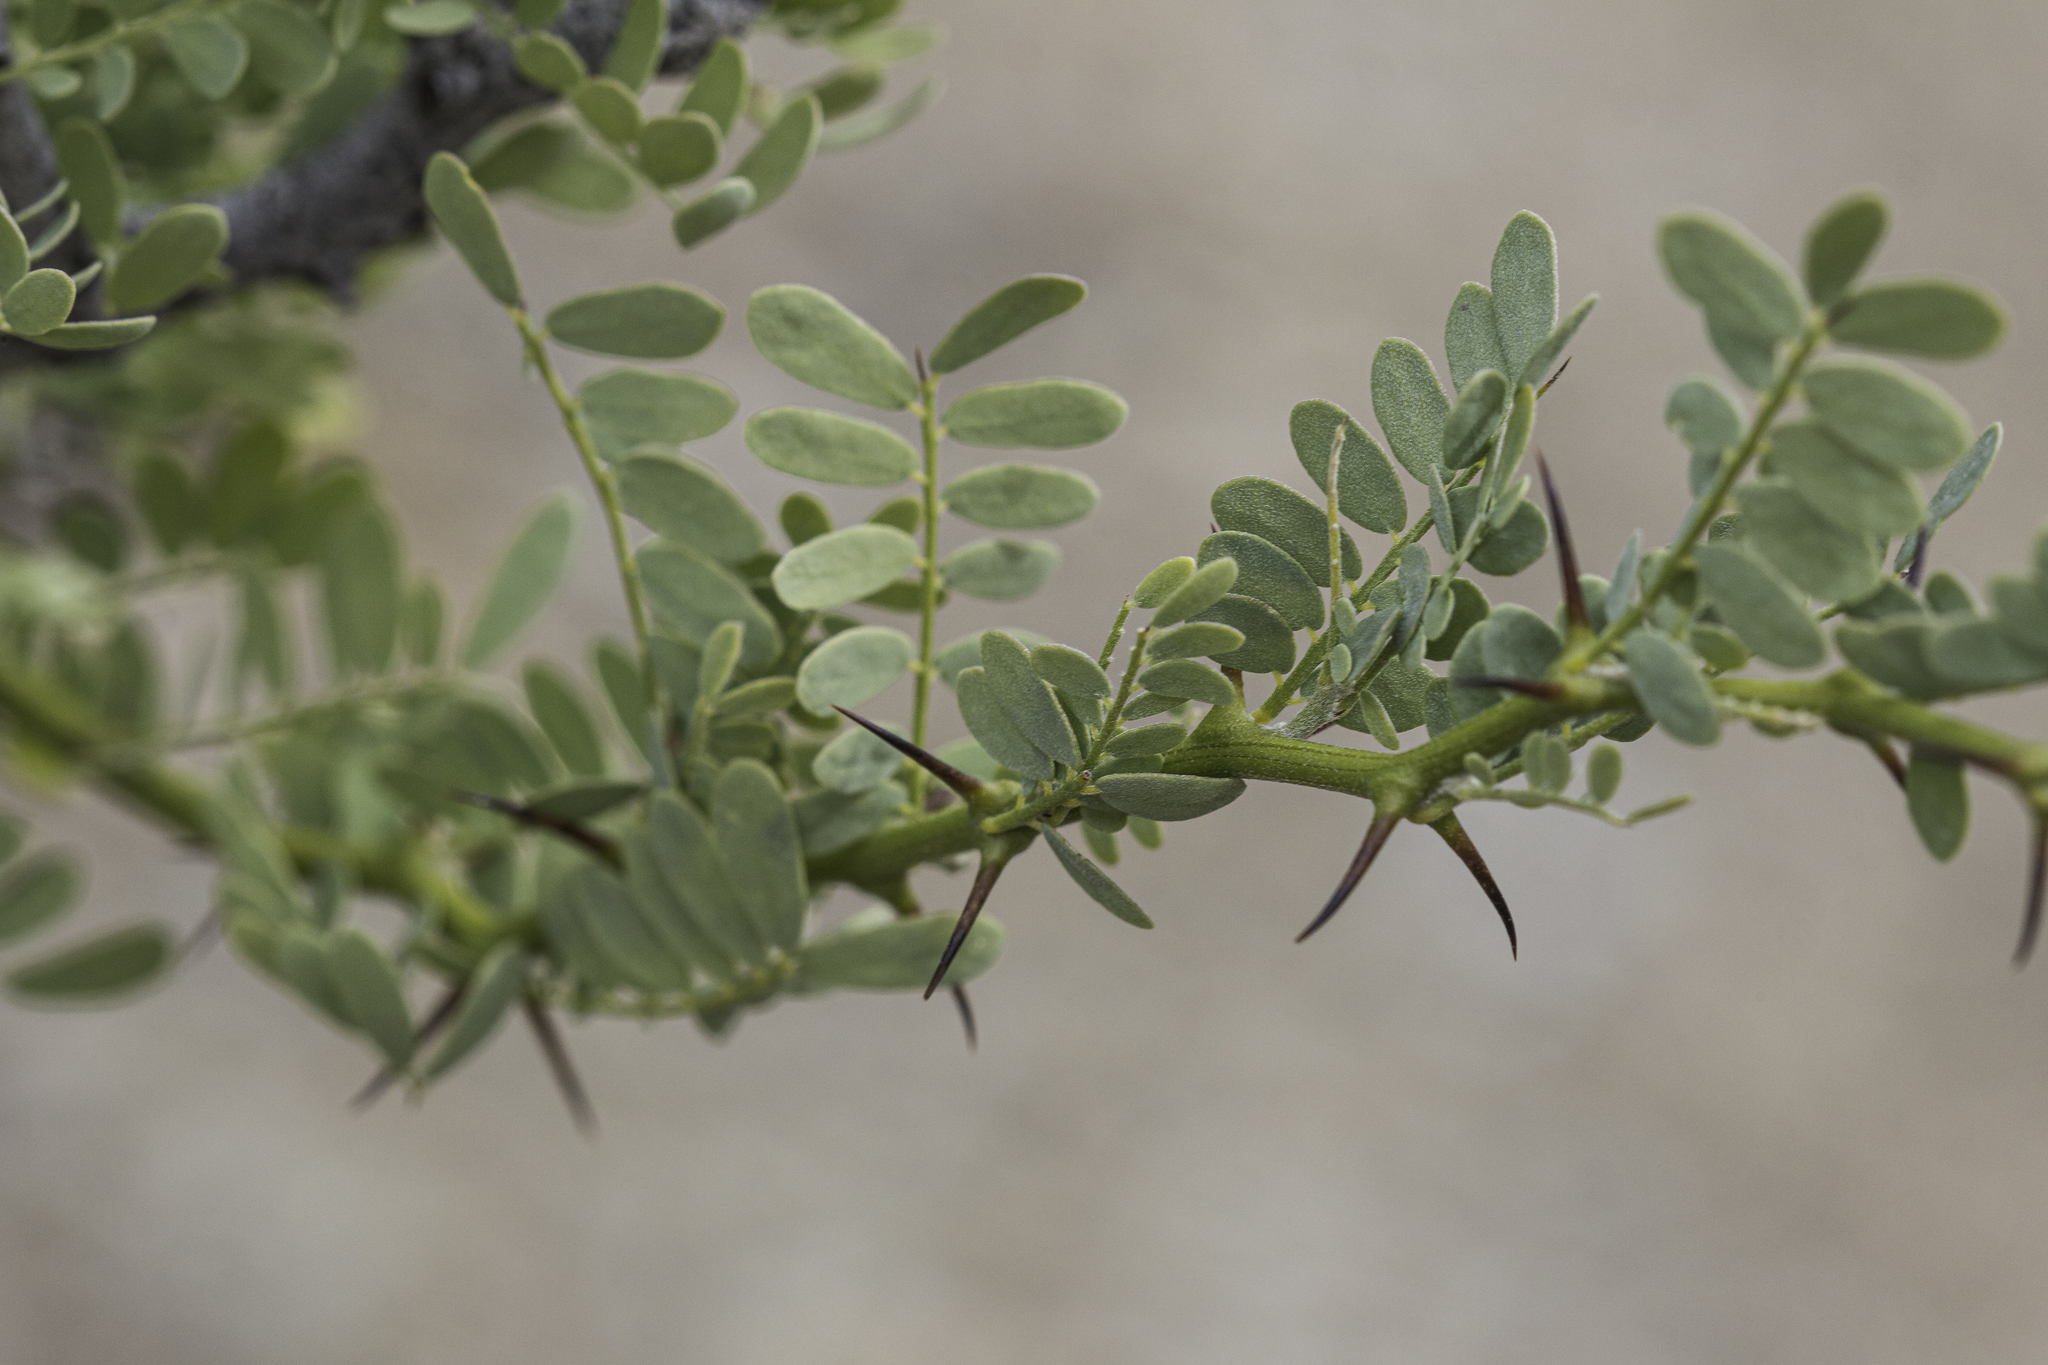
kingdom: Plantae
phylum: Tracheophyta
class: Magnoliopsida
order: Fabales
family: Fabaceae
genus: Olneya
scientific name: Olneya tesota
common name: Desert ironwood
